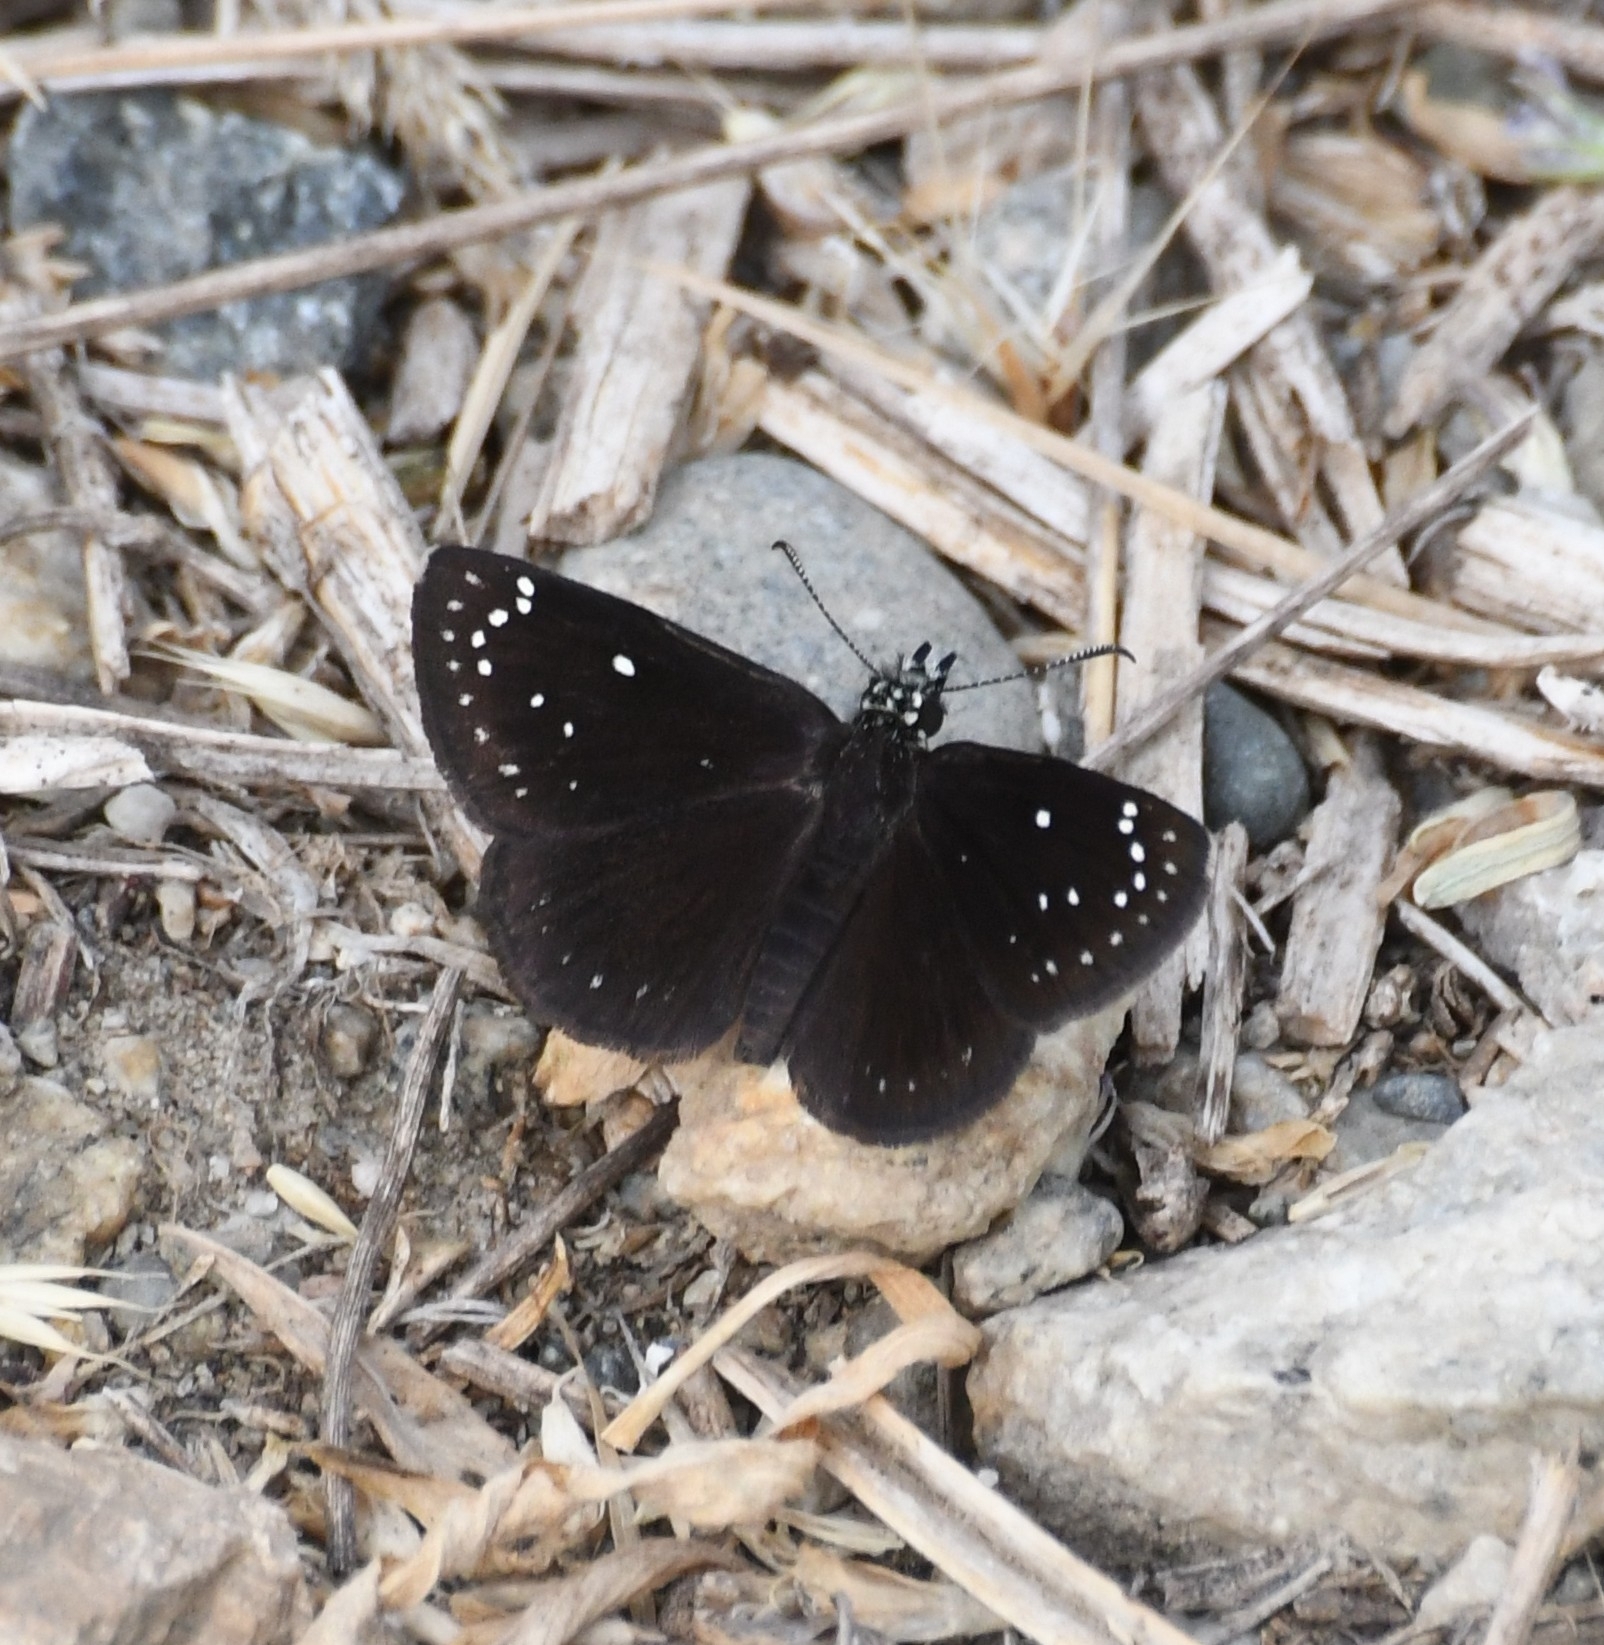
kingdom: Animalia
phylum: Arthropoda
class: Insecta
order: Lepidoptera
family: Hesperiidae
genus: Pholisora
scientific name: Pholisora catullus
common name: Common sootywing
